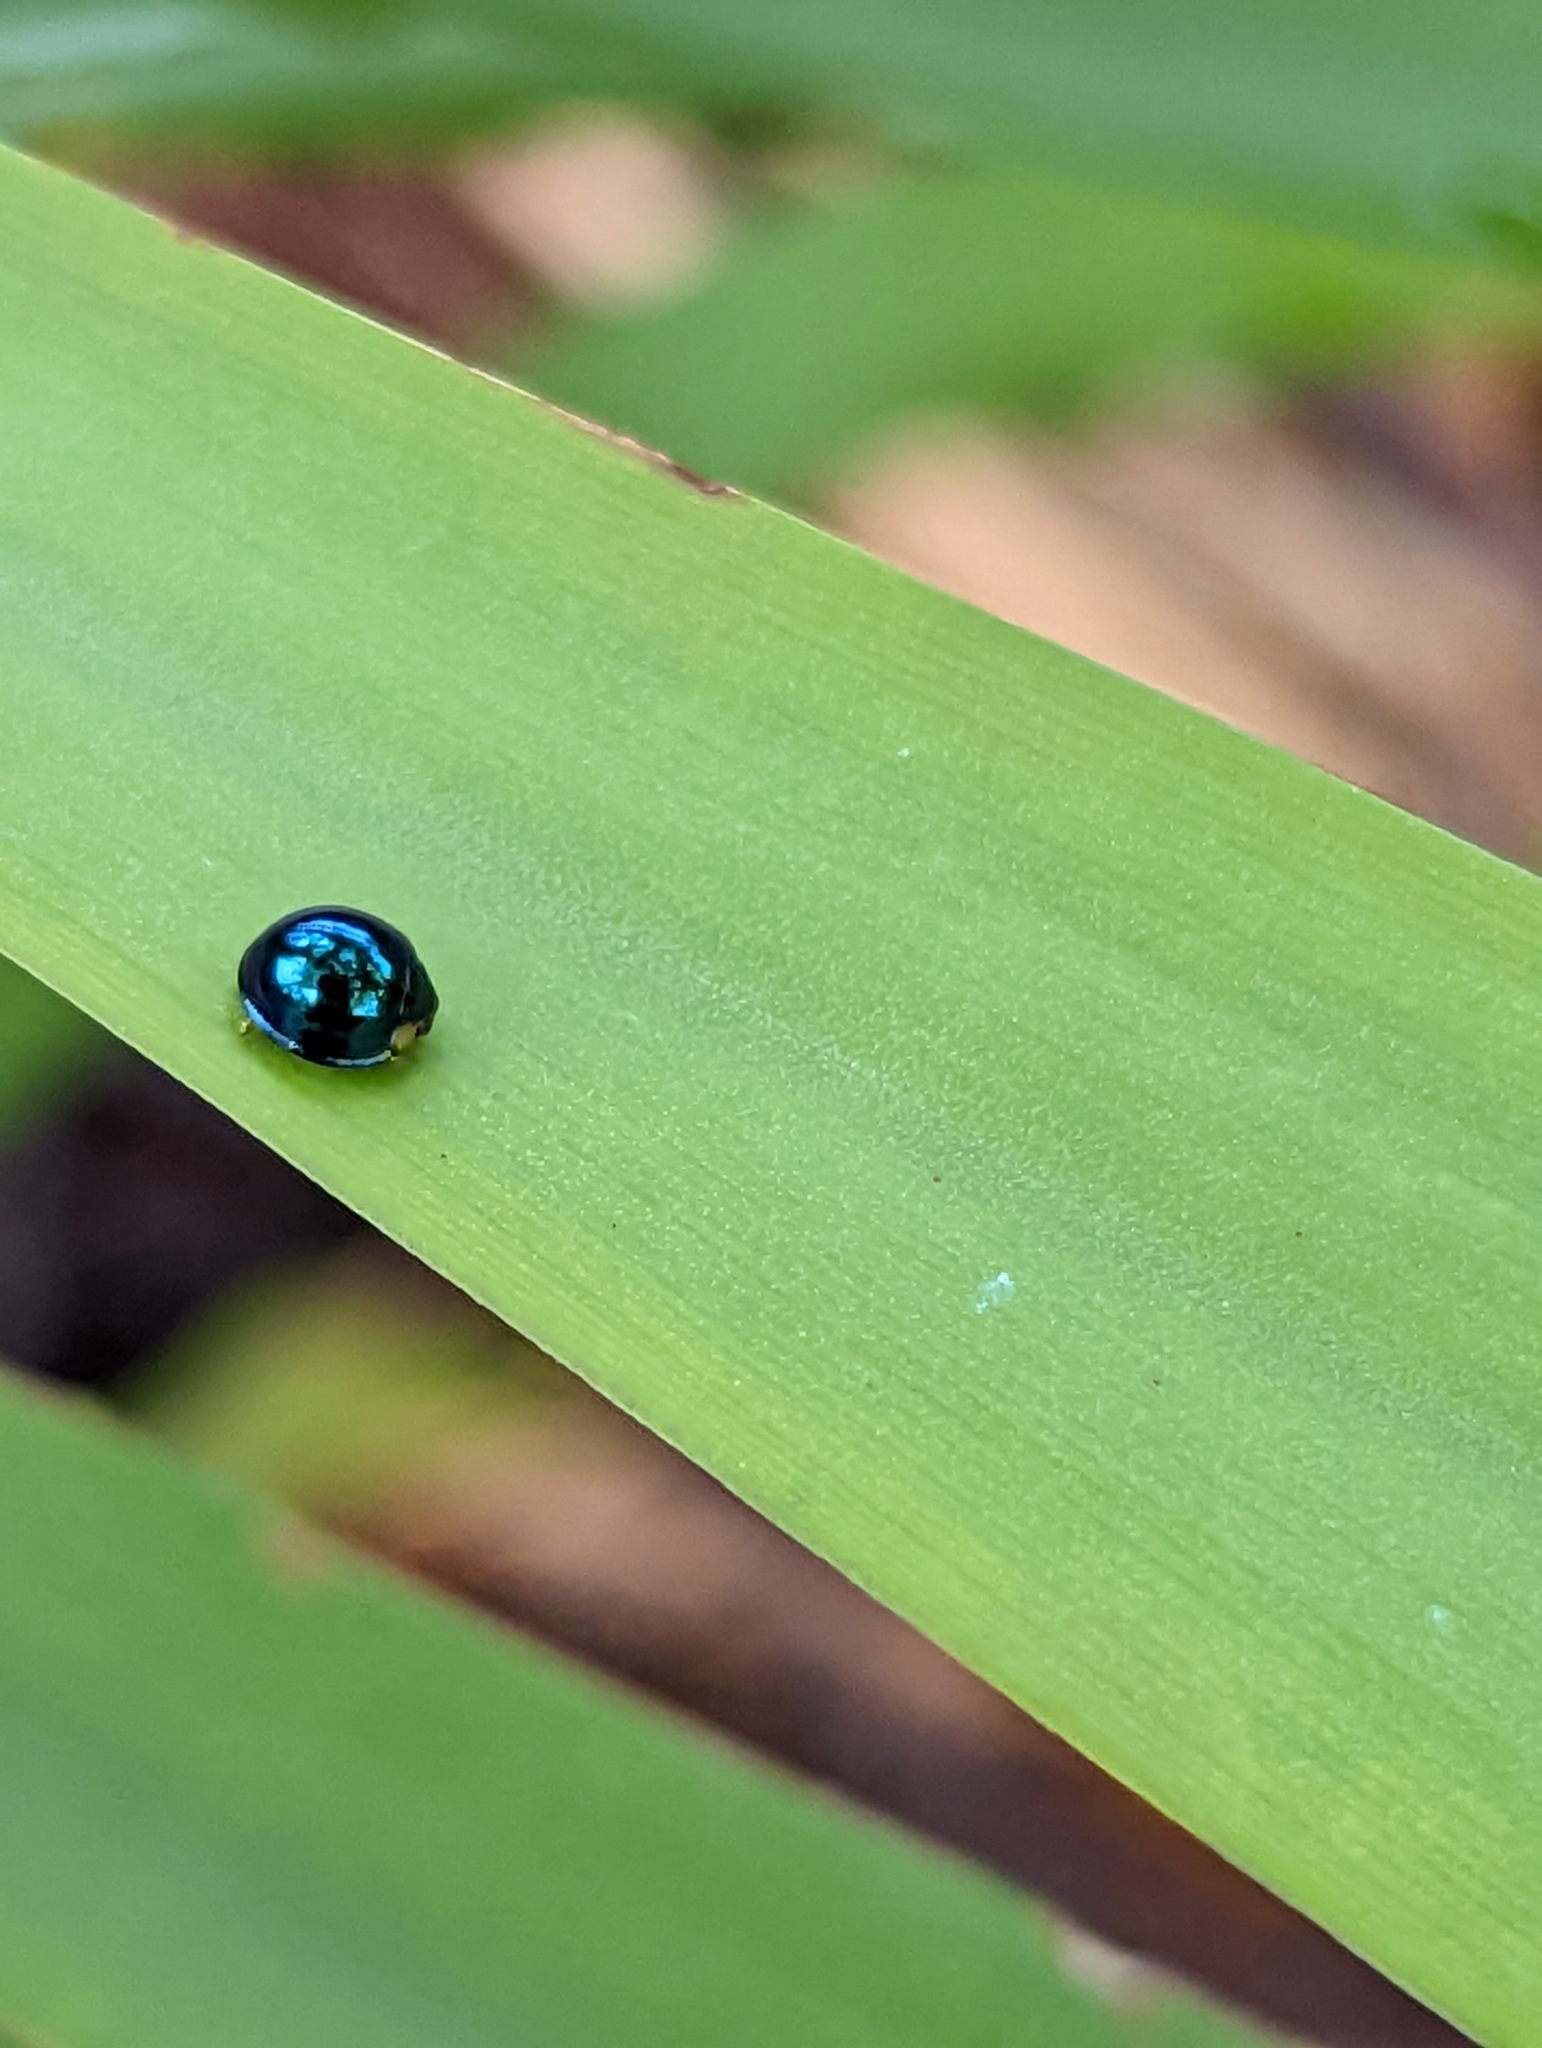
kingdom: Animalia
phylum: Arthropoda
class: Insecta
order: Coleoptera
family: Coccinellidae
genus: Halmus
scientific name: Halmus chalybeus
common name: Steel blue ladybird beetle
